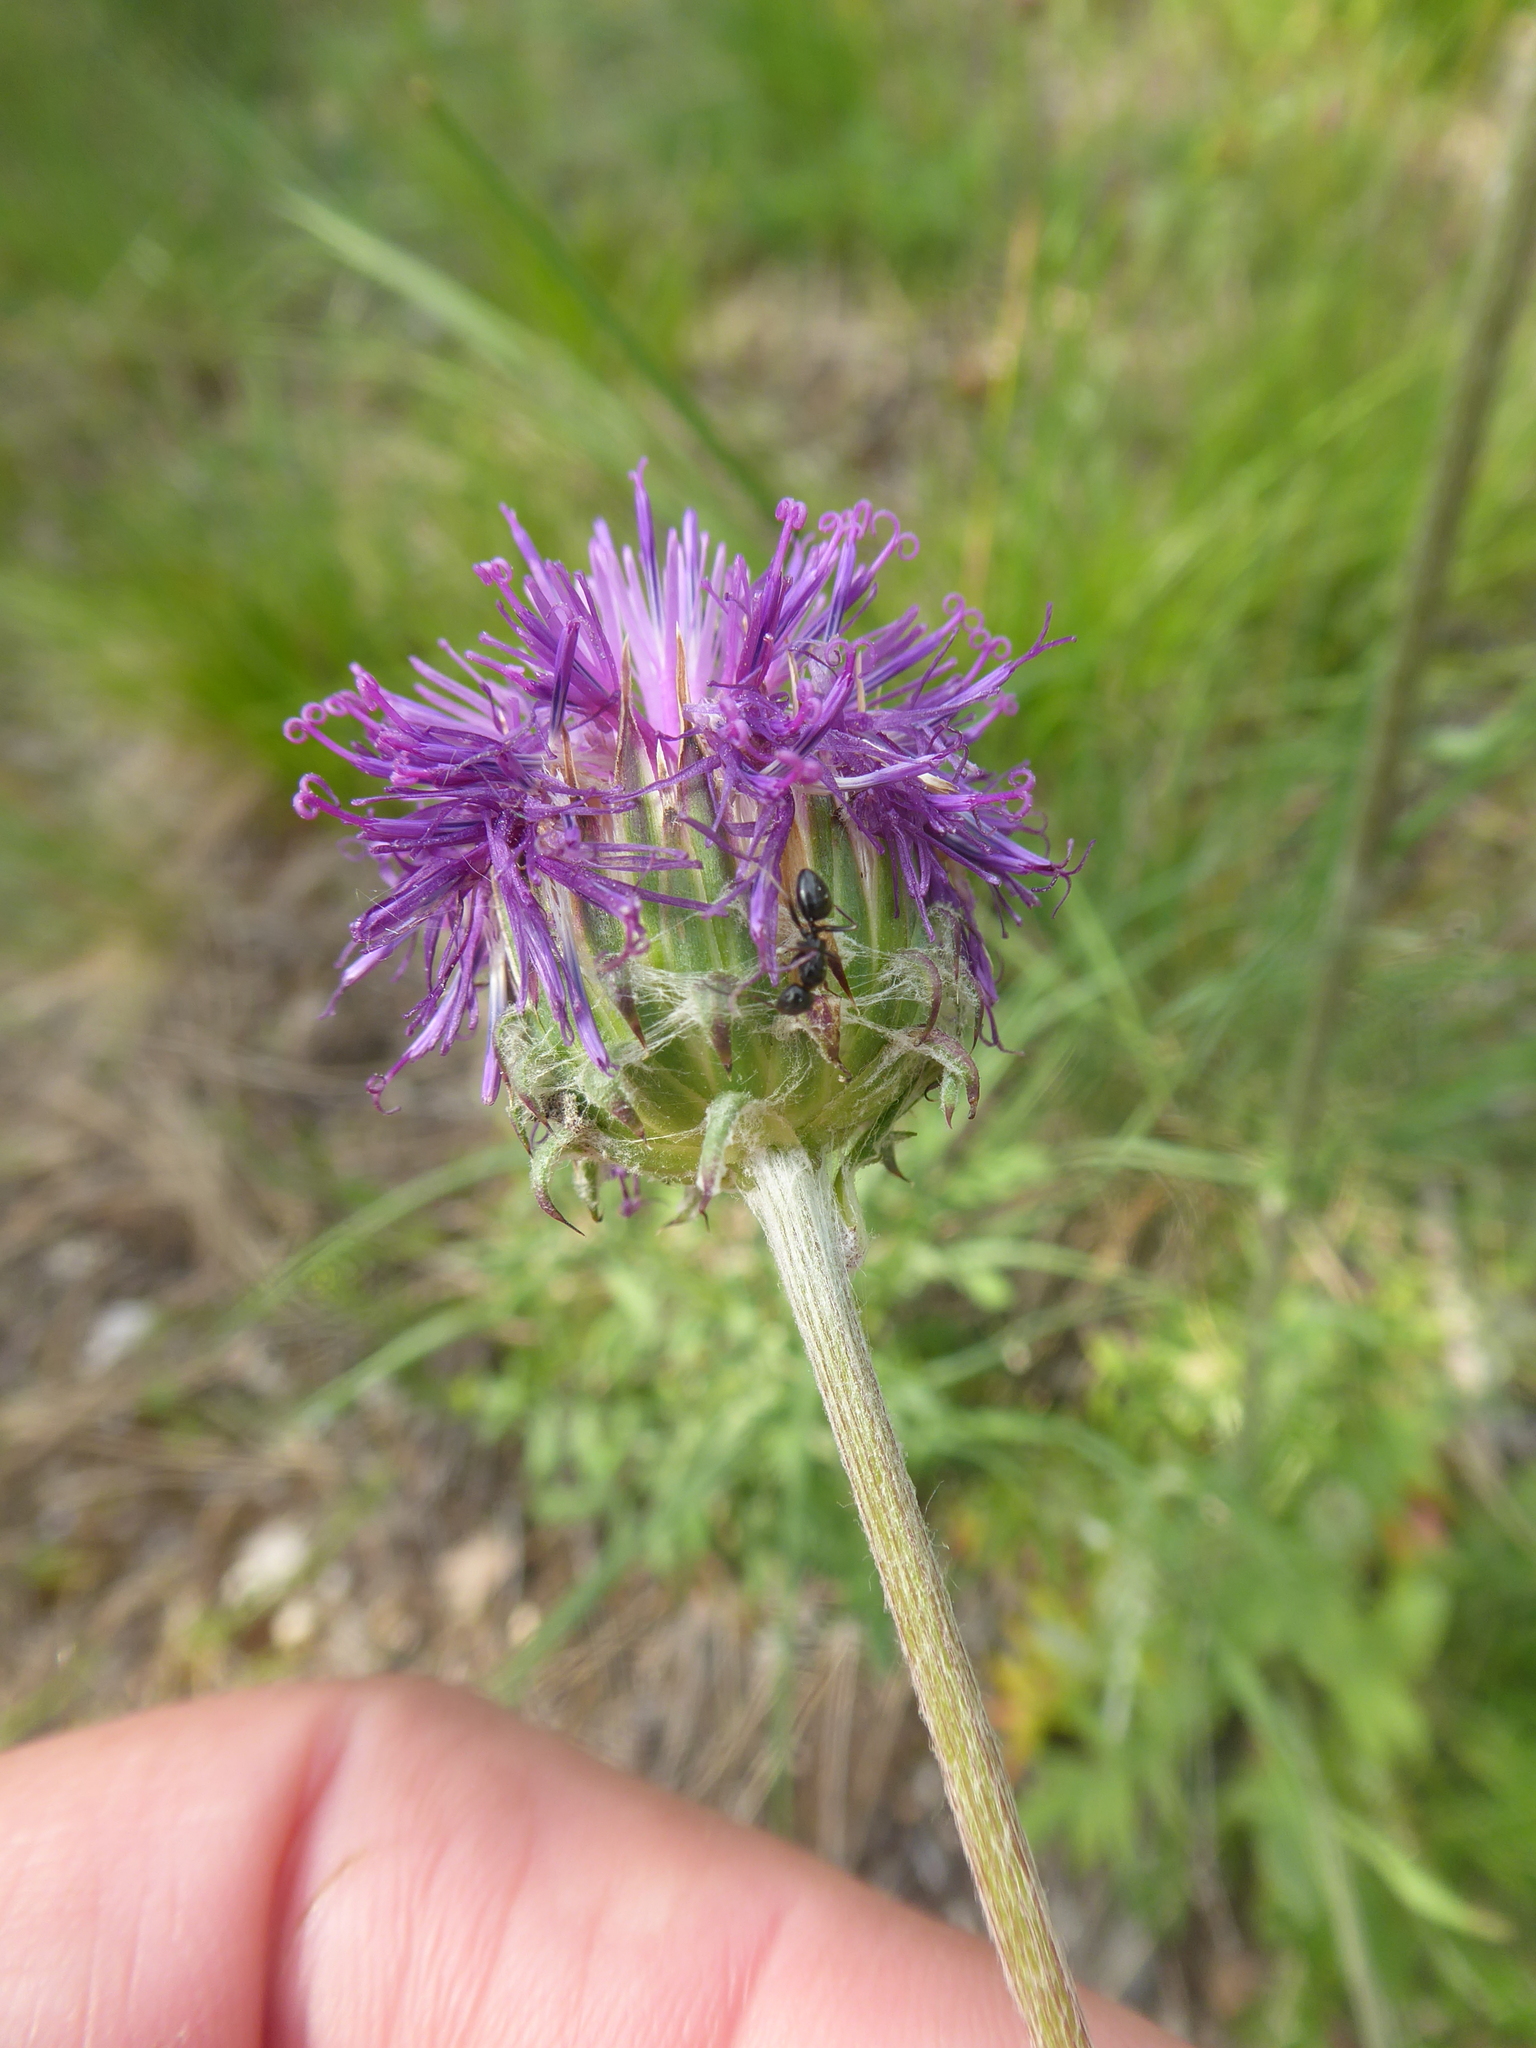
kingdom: Plantae
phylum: Tracheophyta
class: Magnoliopsida
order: Asterales
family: Asteraceae
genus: Jurinea
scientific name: Jurinea mollis
